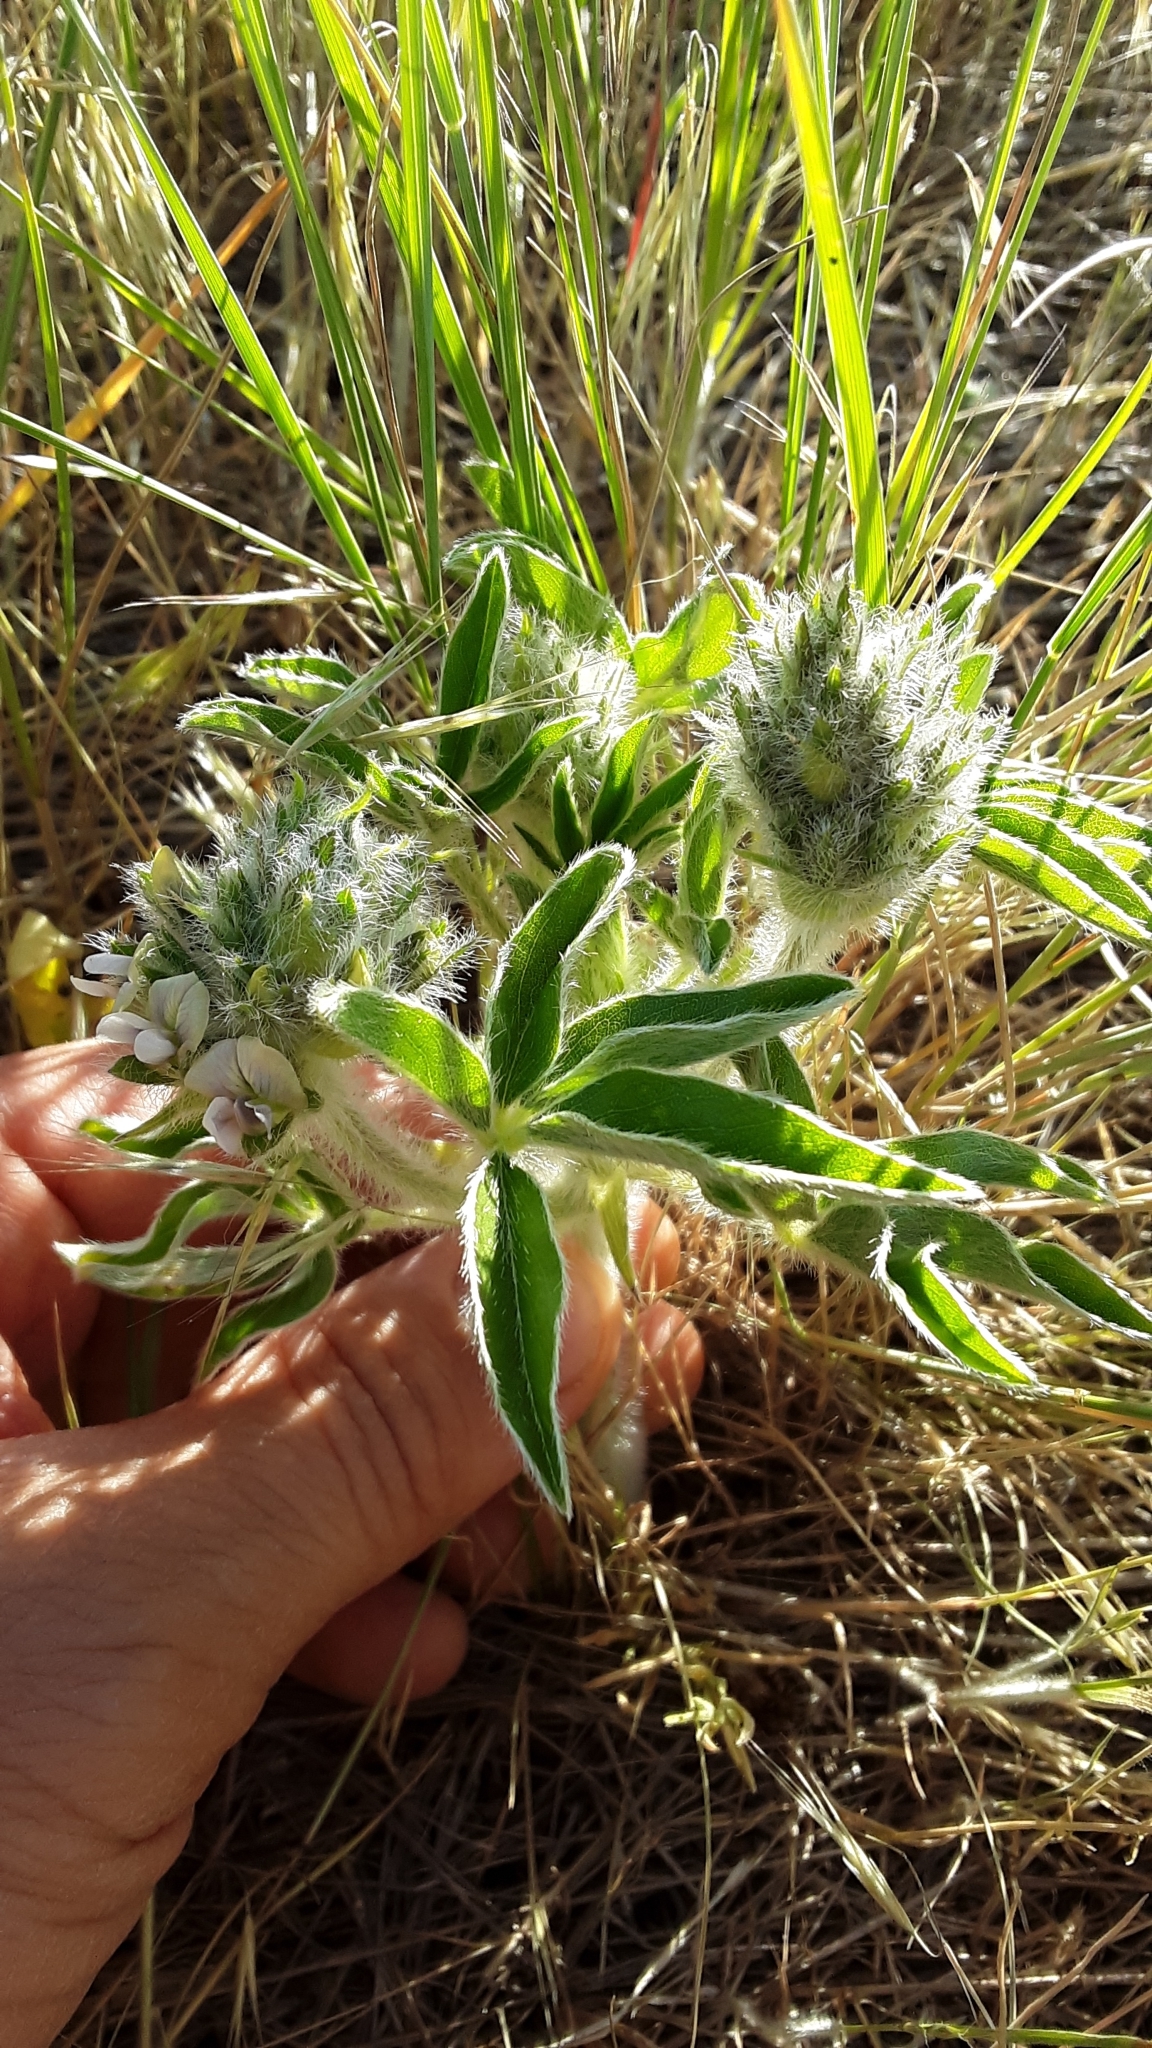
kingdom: Plantae
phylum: Tracheophyta
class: Magnoliopsida
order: Fabales
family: Fabaceae
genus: Pediomelum
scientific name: Pediomelum esculentum
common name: Indian-turnip
